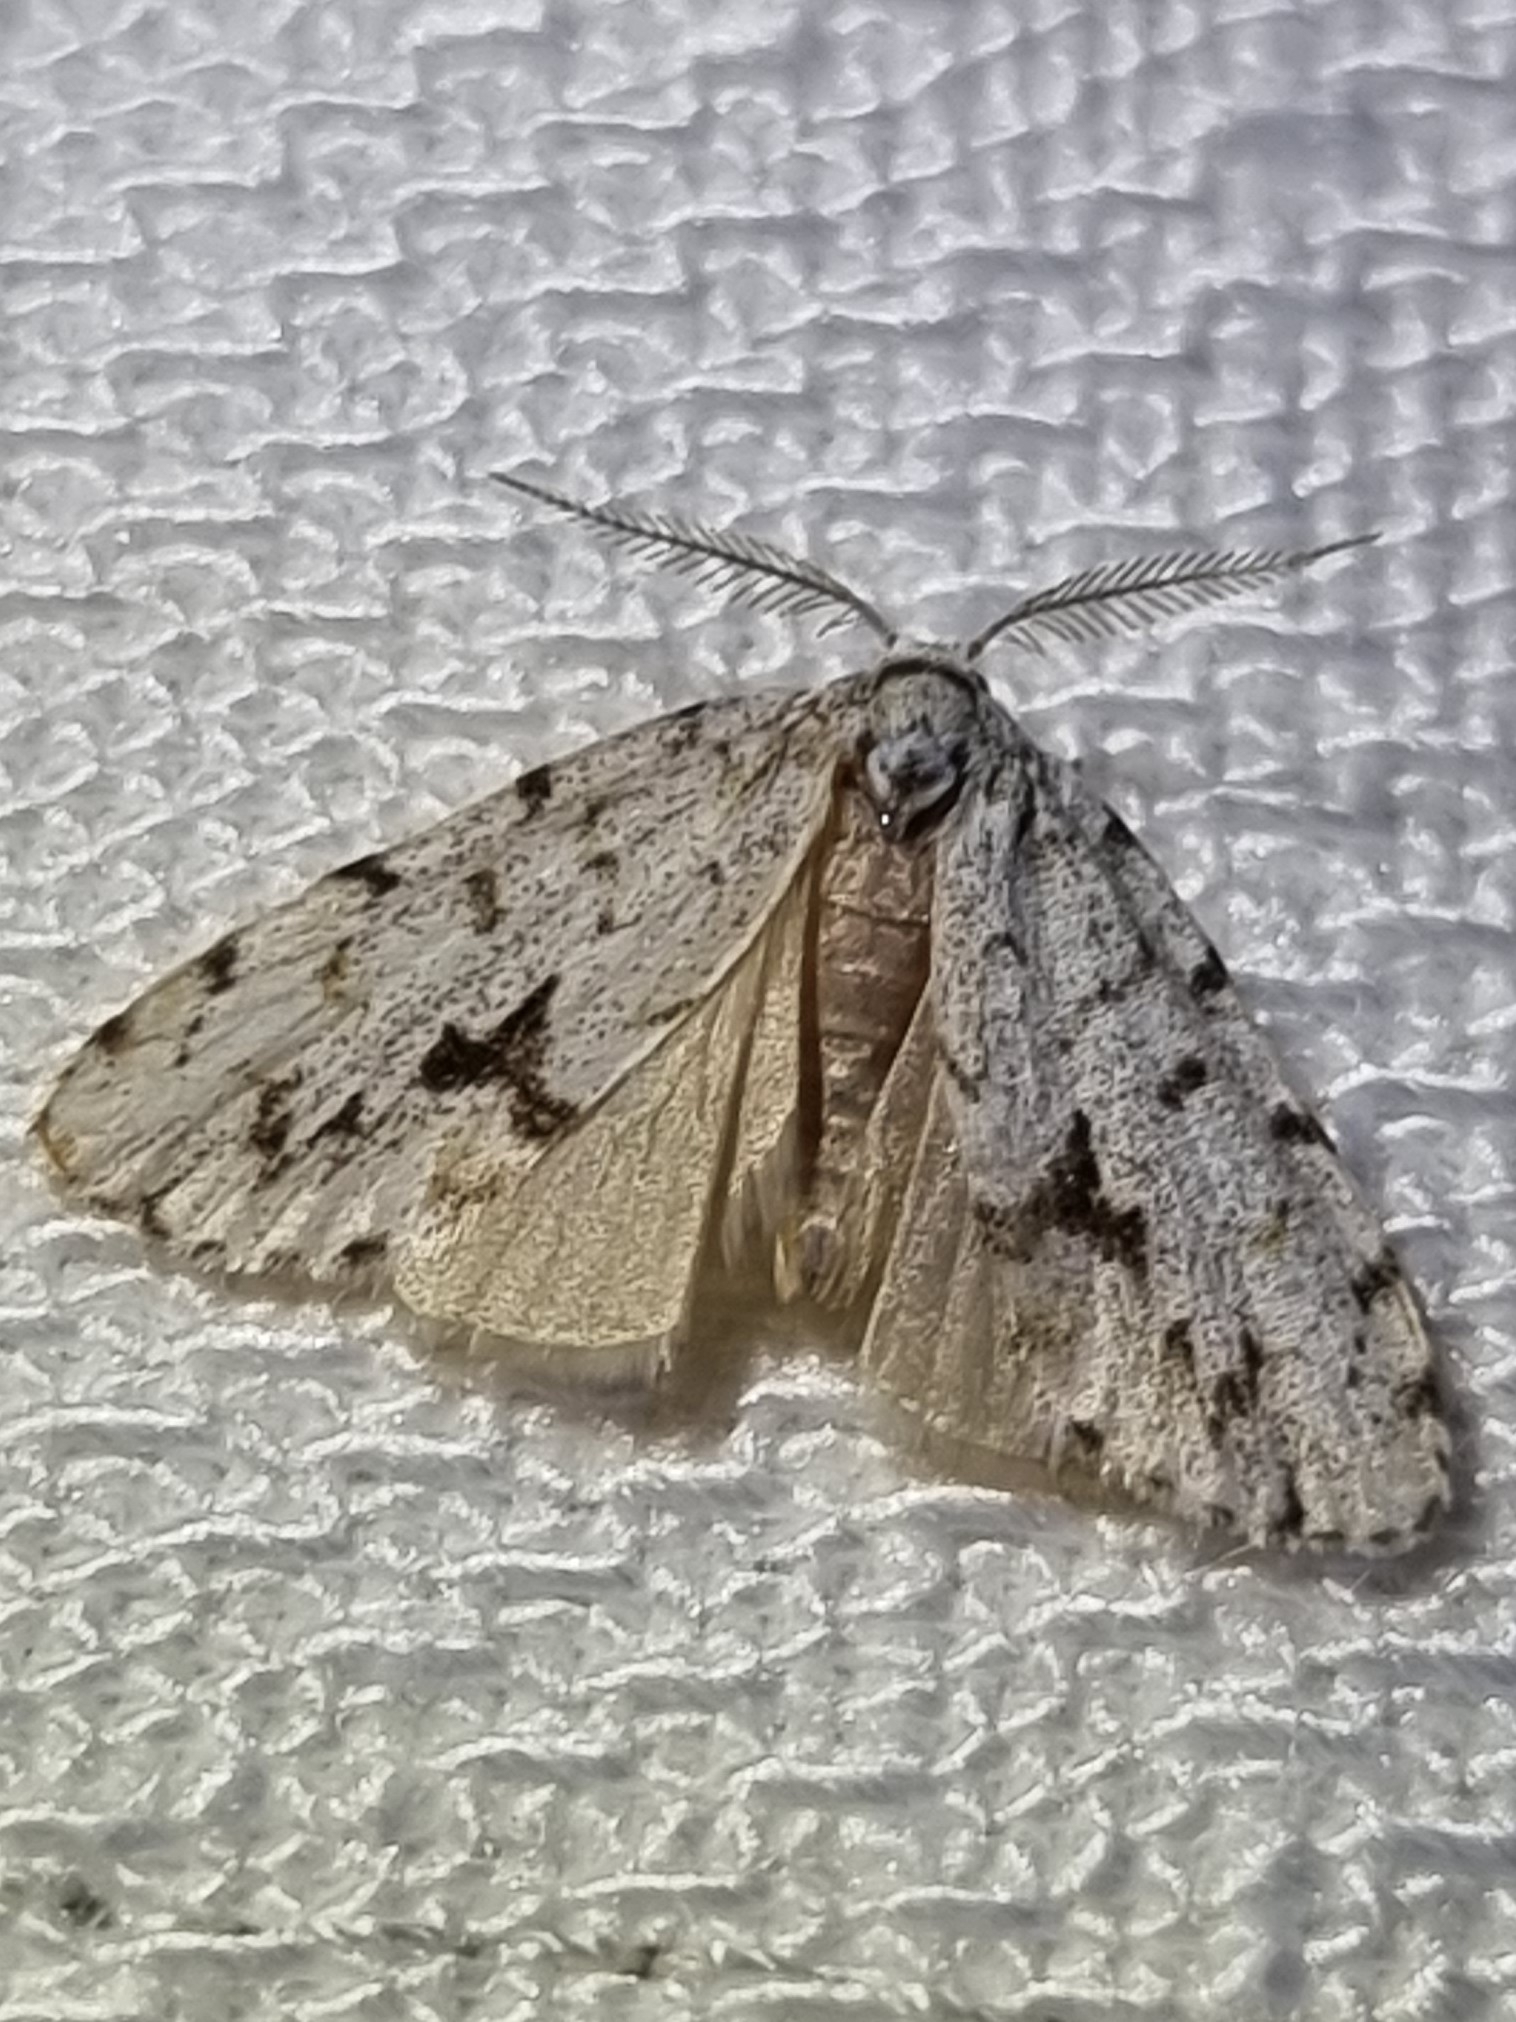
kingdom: Animalia
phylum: Arthropoda
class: Insecta
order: Lepidoptera
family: Erebidae
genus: Thallarcha
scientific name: Thallarcha macilenta
